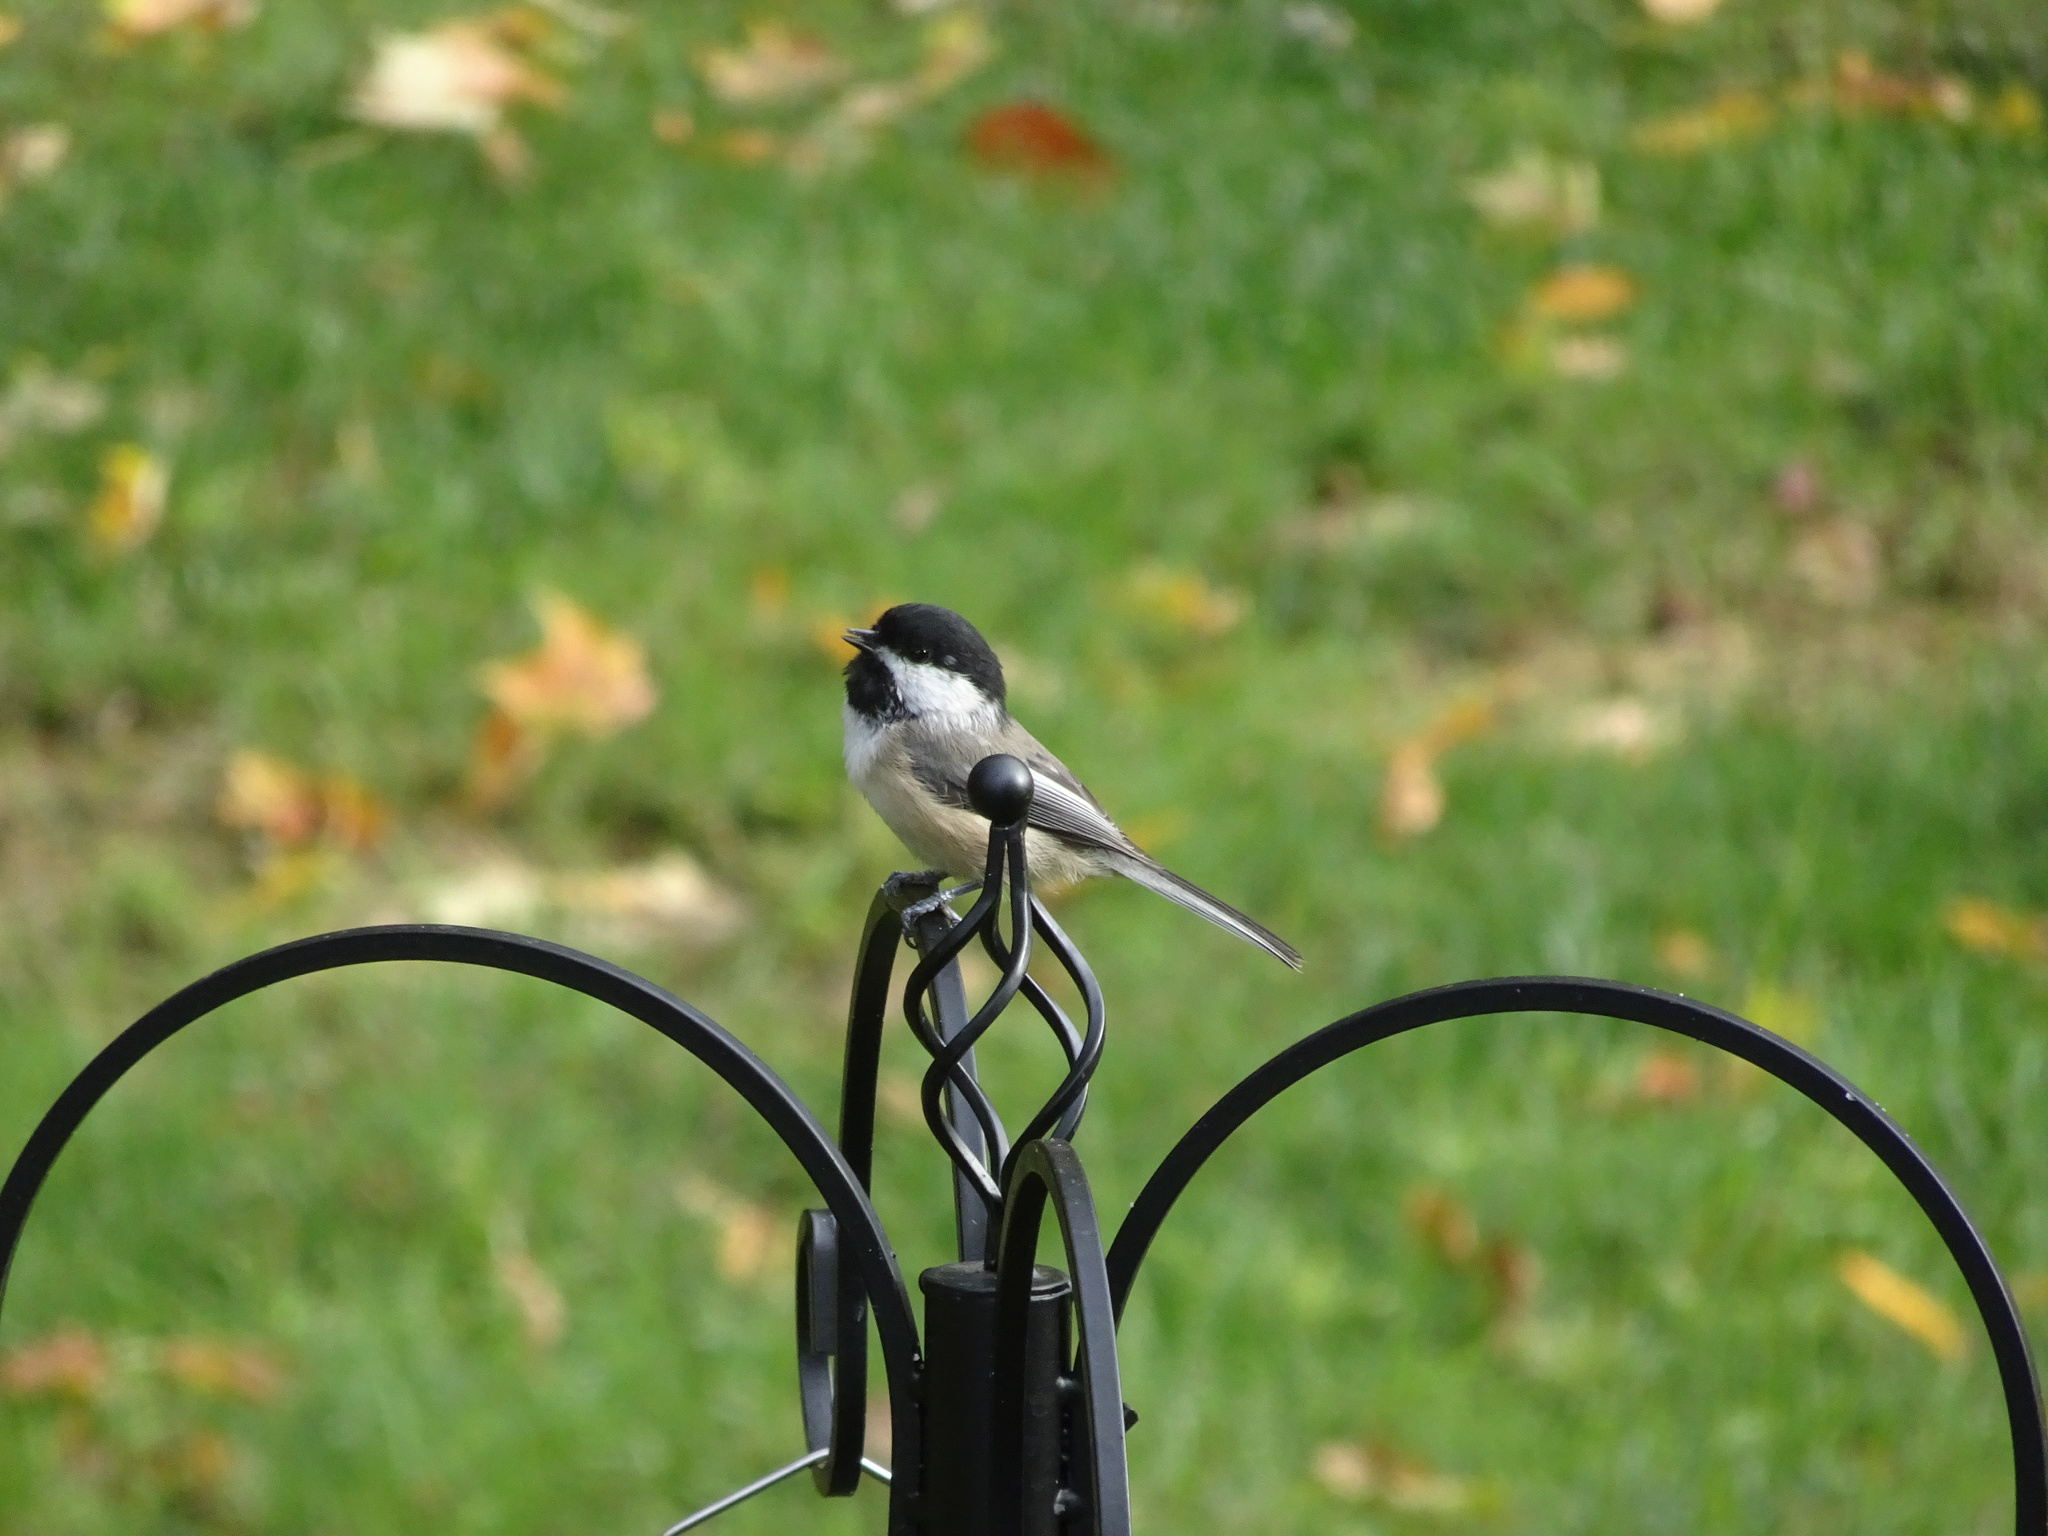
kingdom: Animalia
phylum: Chordata
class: Aves
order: Passeriformes
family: Paridae
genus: Poecile
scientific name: Poecile atricapillus
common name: Black-capped chickadee
